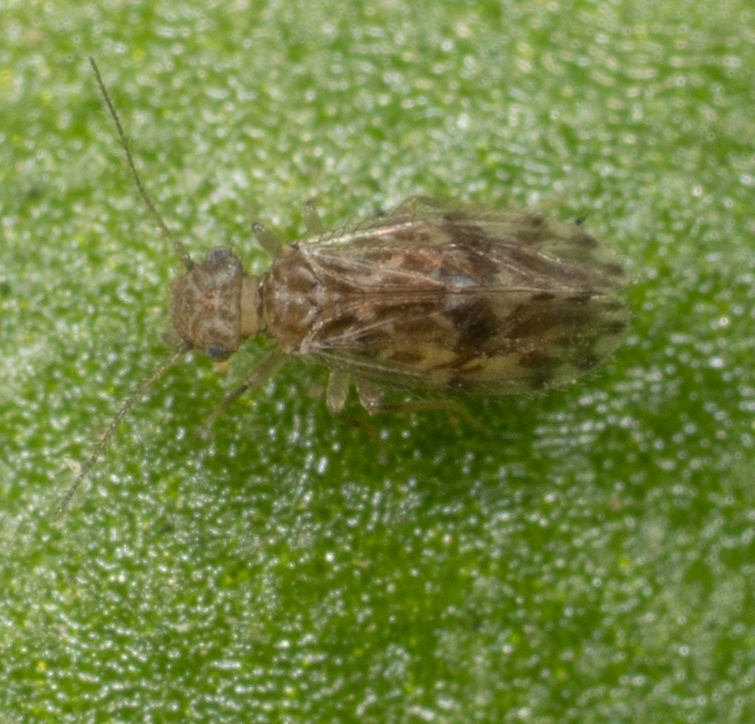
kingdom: Animalia
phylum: Arthropoda
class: Insecta
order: Psocodea
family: Ectopsocidae
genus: Ectopsocus
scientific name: Ectopsocus strauchi
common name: Medium-sized bark louse
